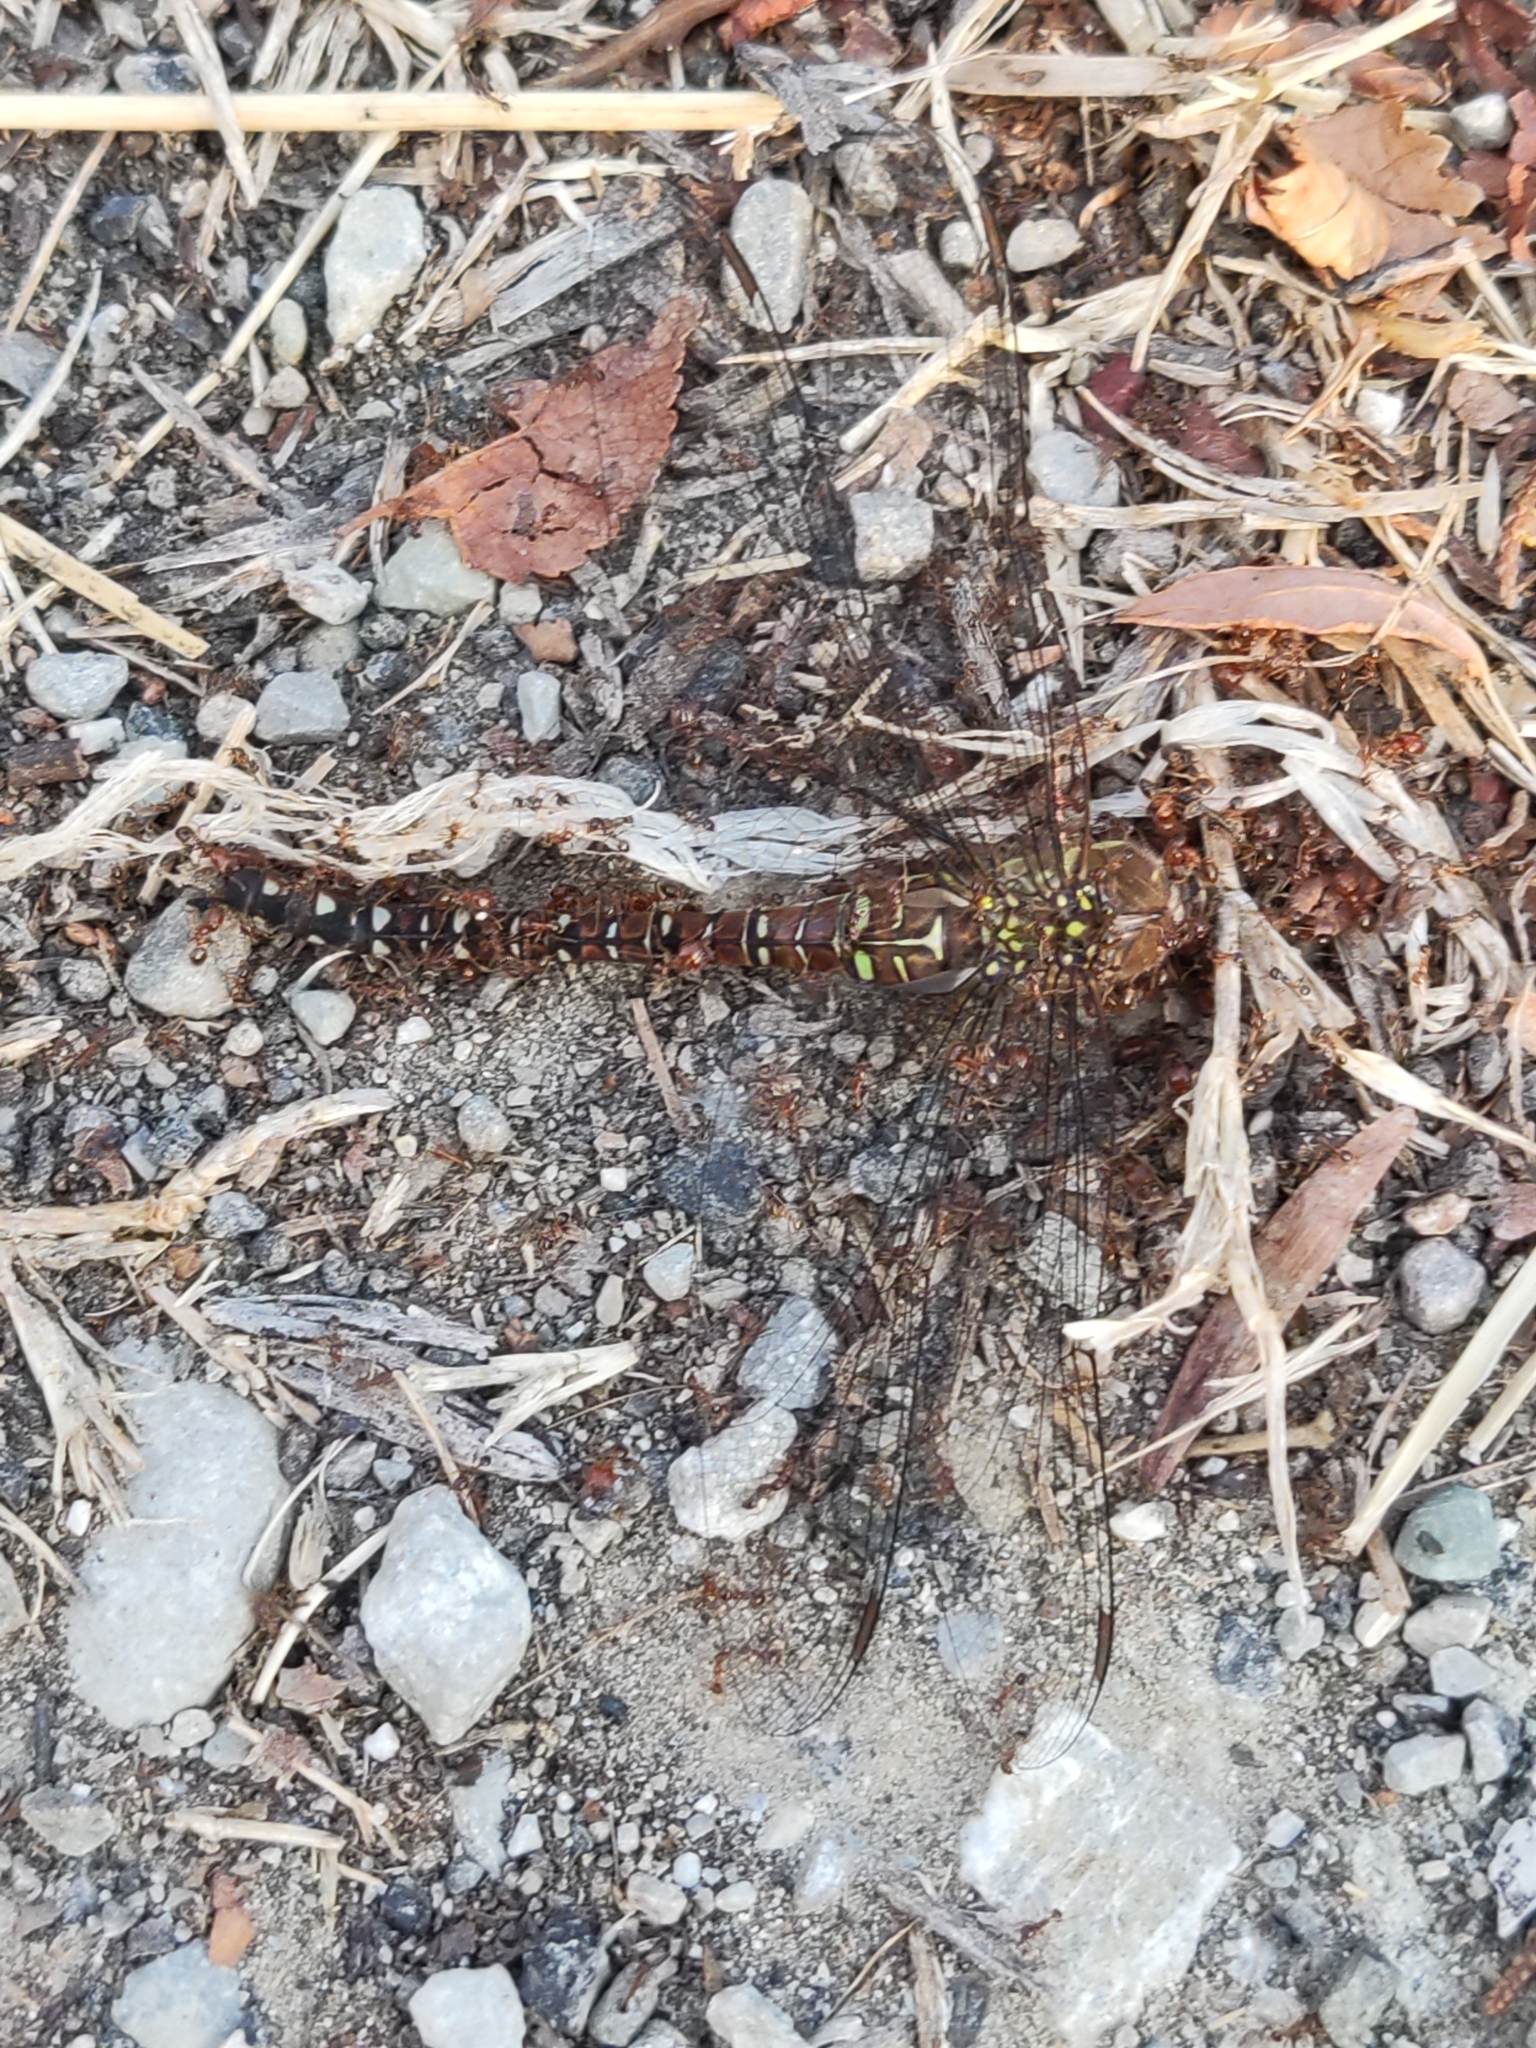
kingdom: Animalia
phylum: Arthropoda
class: Insecta
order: Hymenoptera
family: Formicidae
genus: Pheidole
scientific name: Pheidole pallidula
